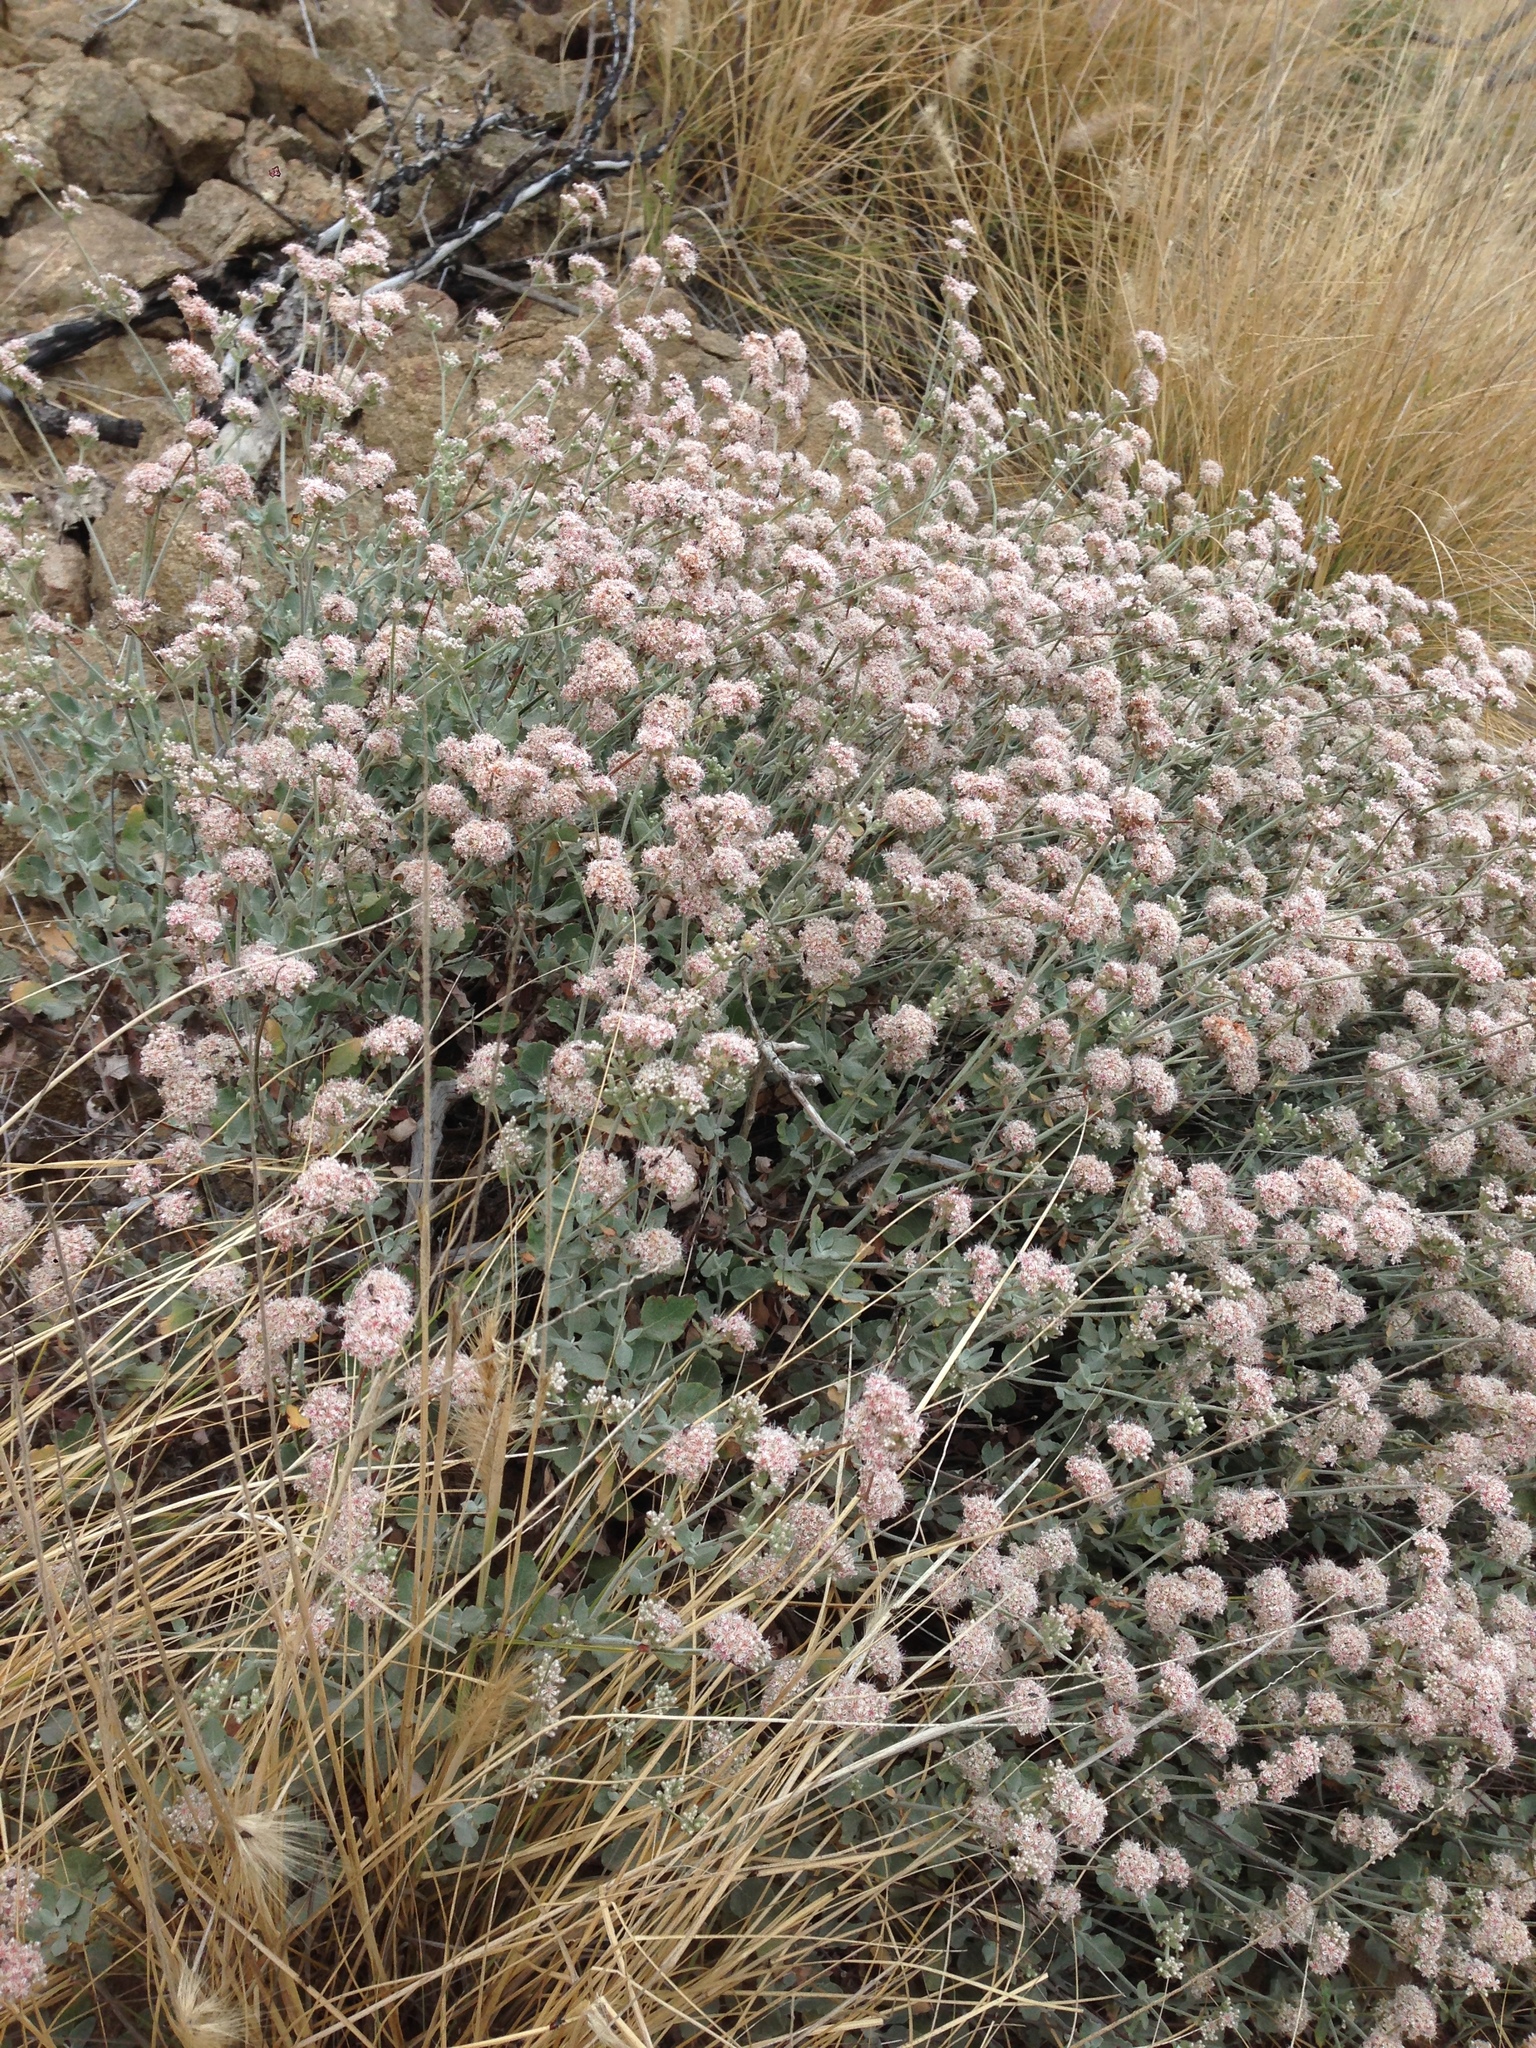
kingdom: Plantae
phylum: Tracheophyta
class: Magnoliopsida
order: Caryophyllales
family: Polygonaceae
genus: Eriogonum
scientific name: Eriogonum cinereum
